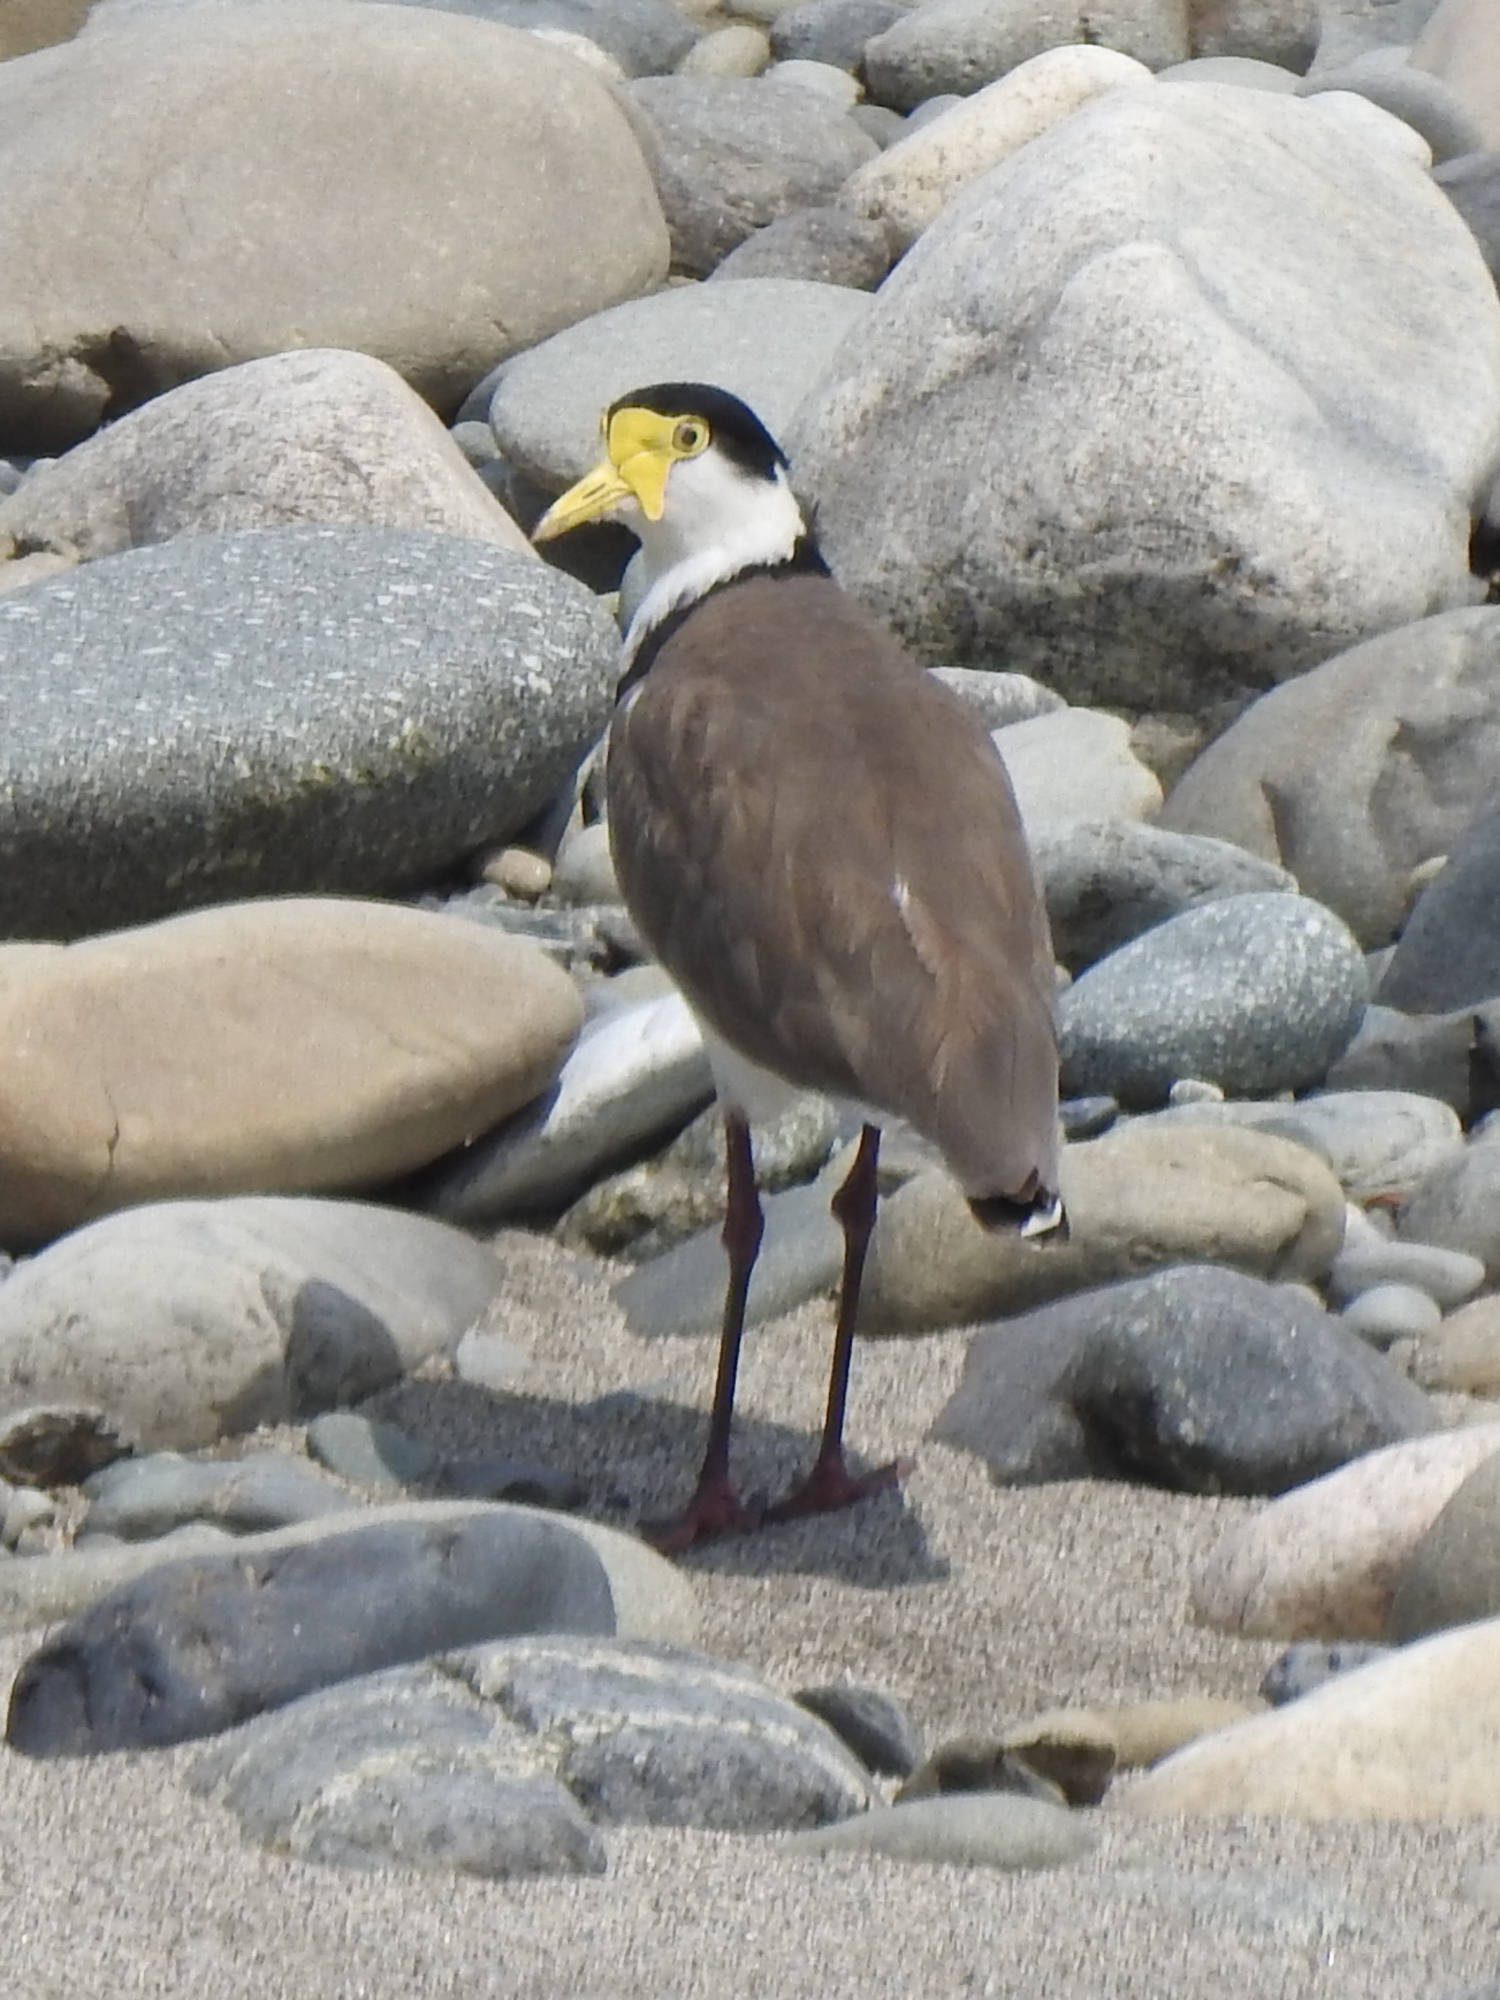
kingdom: Animalia
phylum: Chordata
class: Aves
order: Charadriiformes
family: Charadriidae
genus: Vanellus
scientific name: Vanellus miles
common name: Masked lapwing
